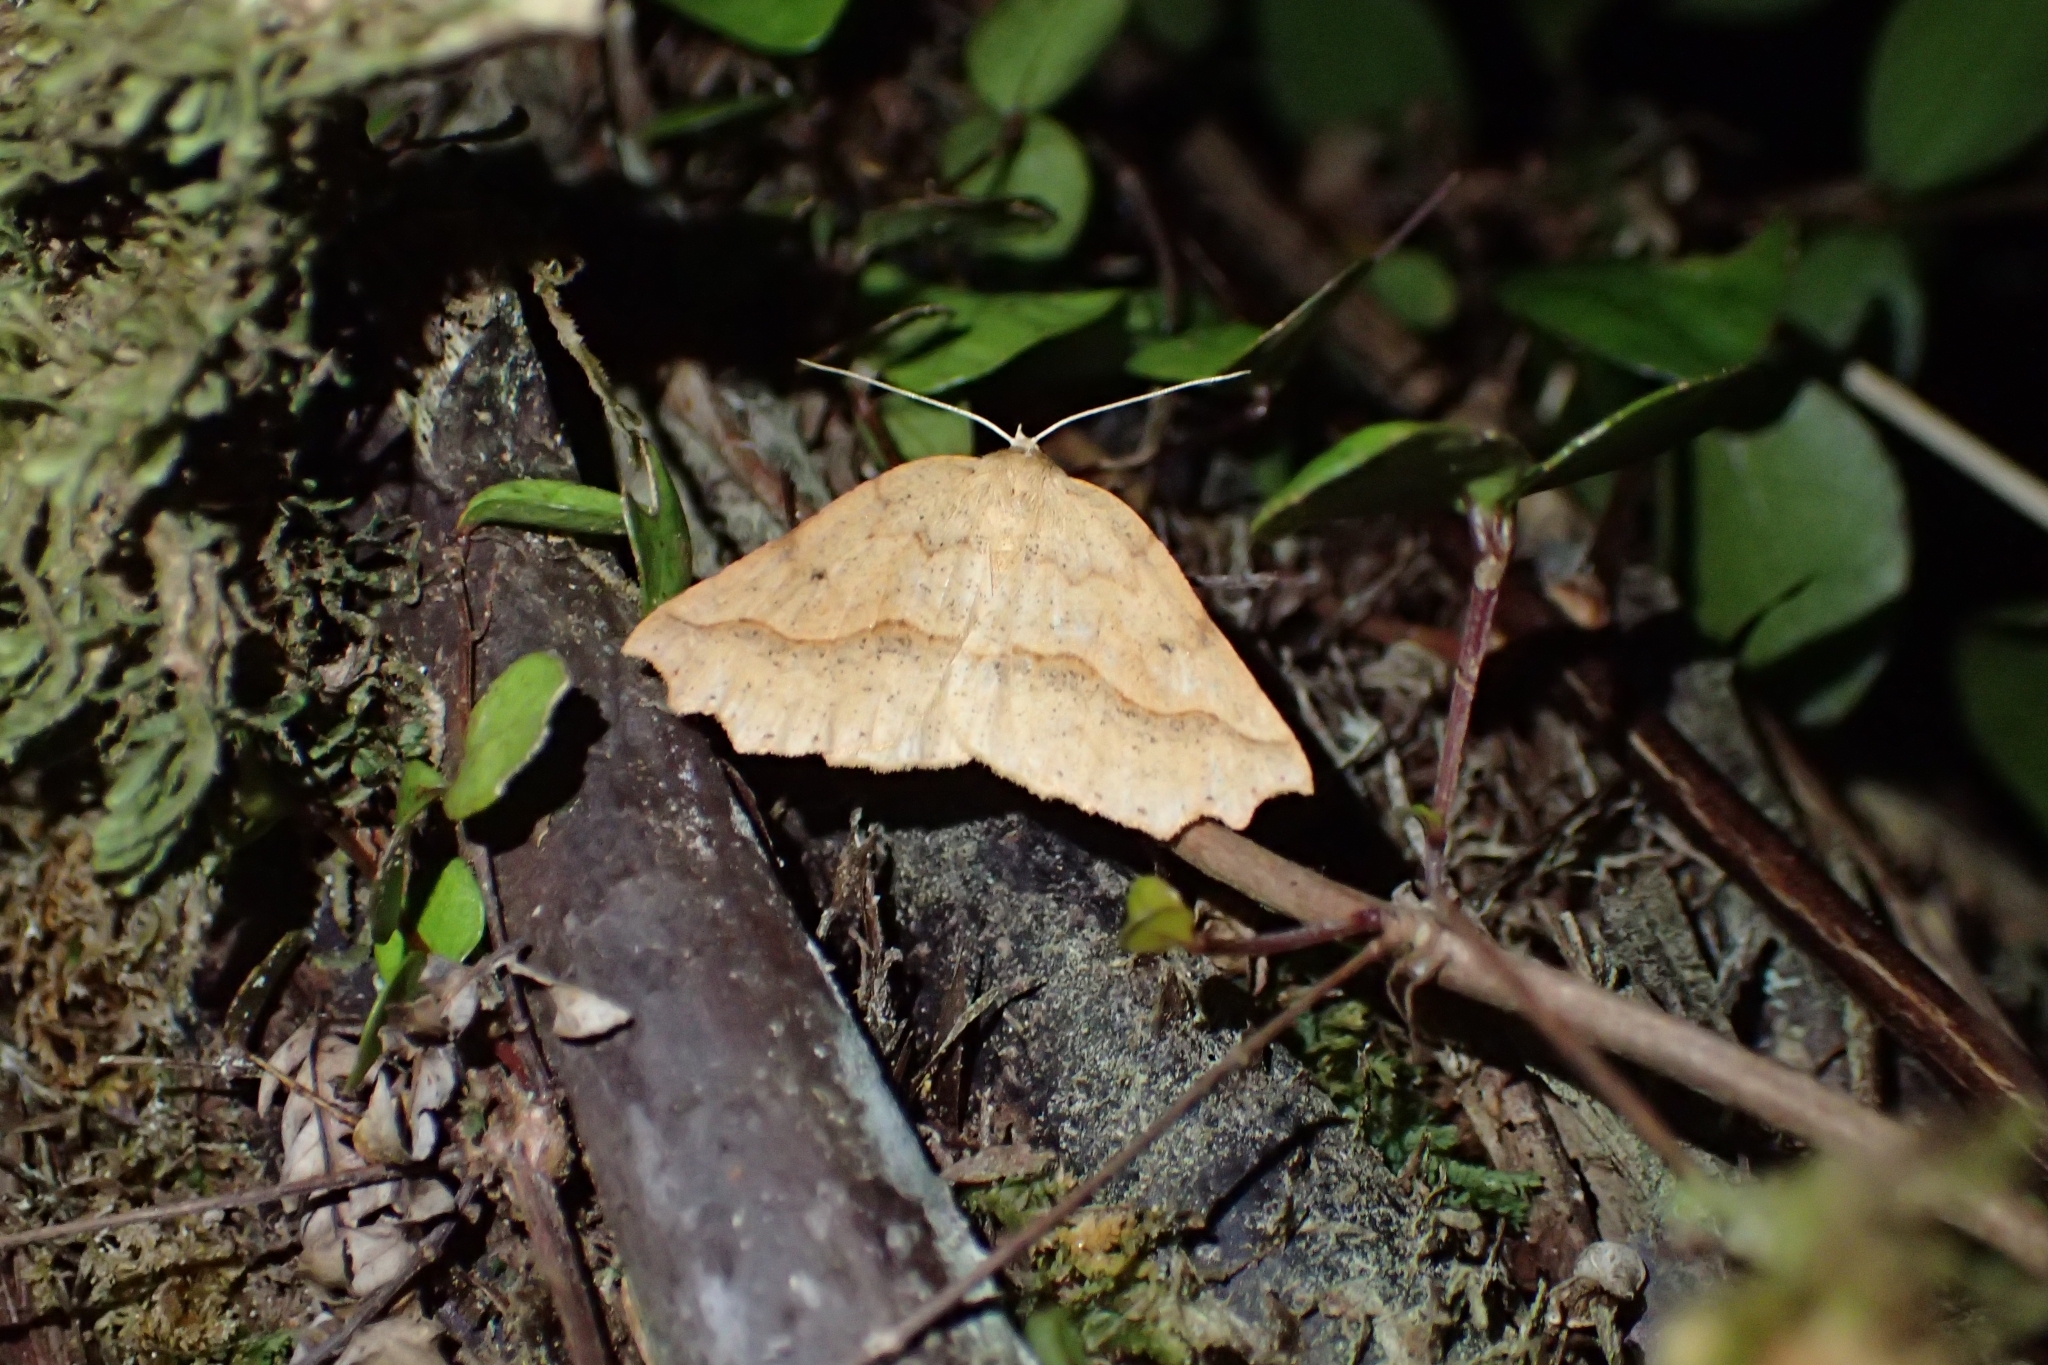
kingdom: Animalia
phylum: Arthropoda
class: Insecta
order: Lepidoptera
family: Geometridae
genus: Ischalis
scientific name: Ischalis variabilis
